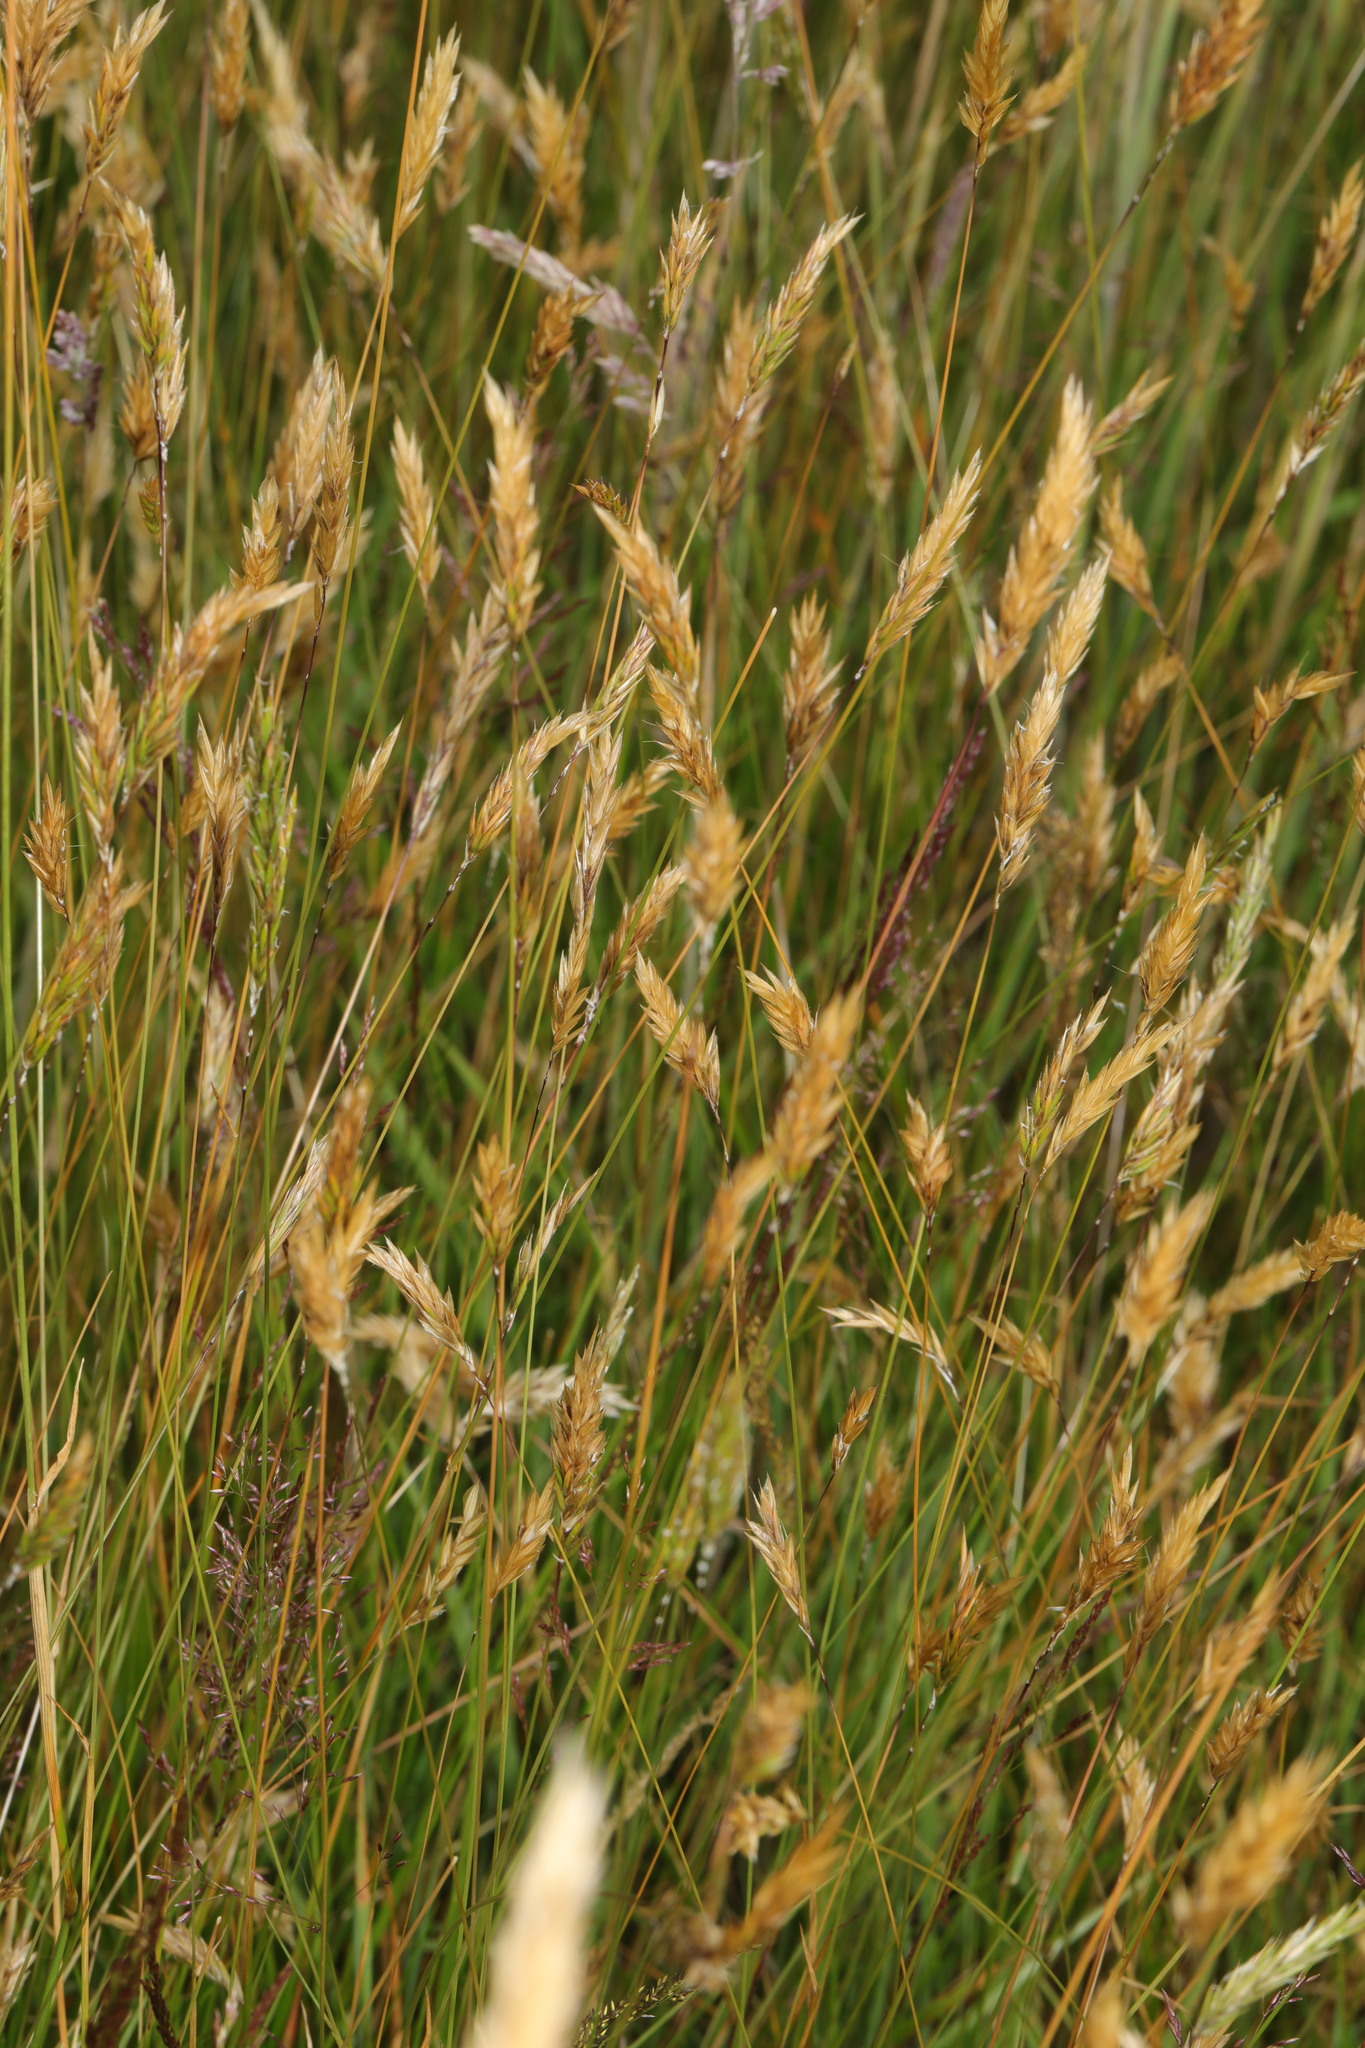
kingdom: Plantae
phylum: Tracheophyta
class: Liliopsida
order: Poales
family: Poaceae
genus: Anthoxanthum
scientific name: Anthoxanthum odoratum
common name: Sweet vernalgrass
